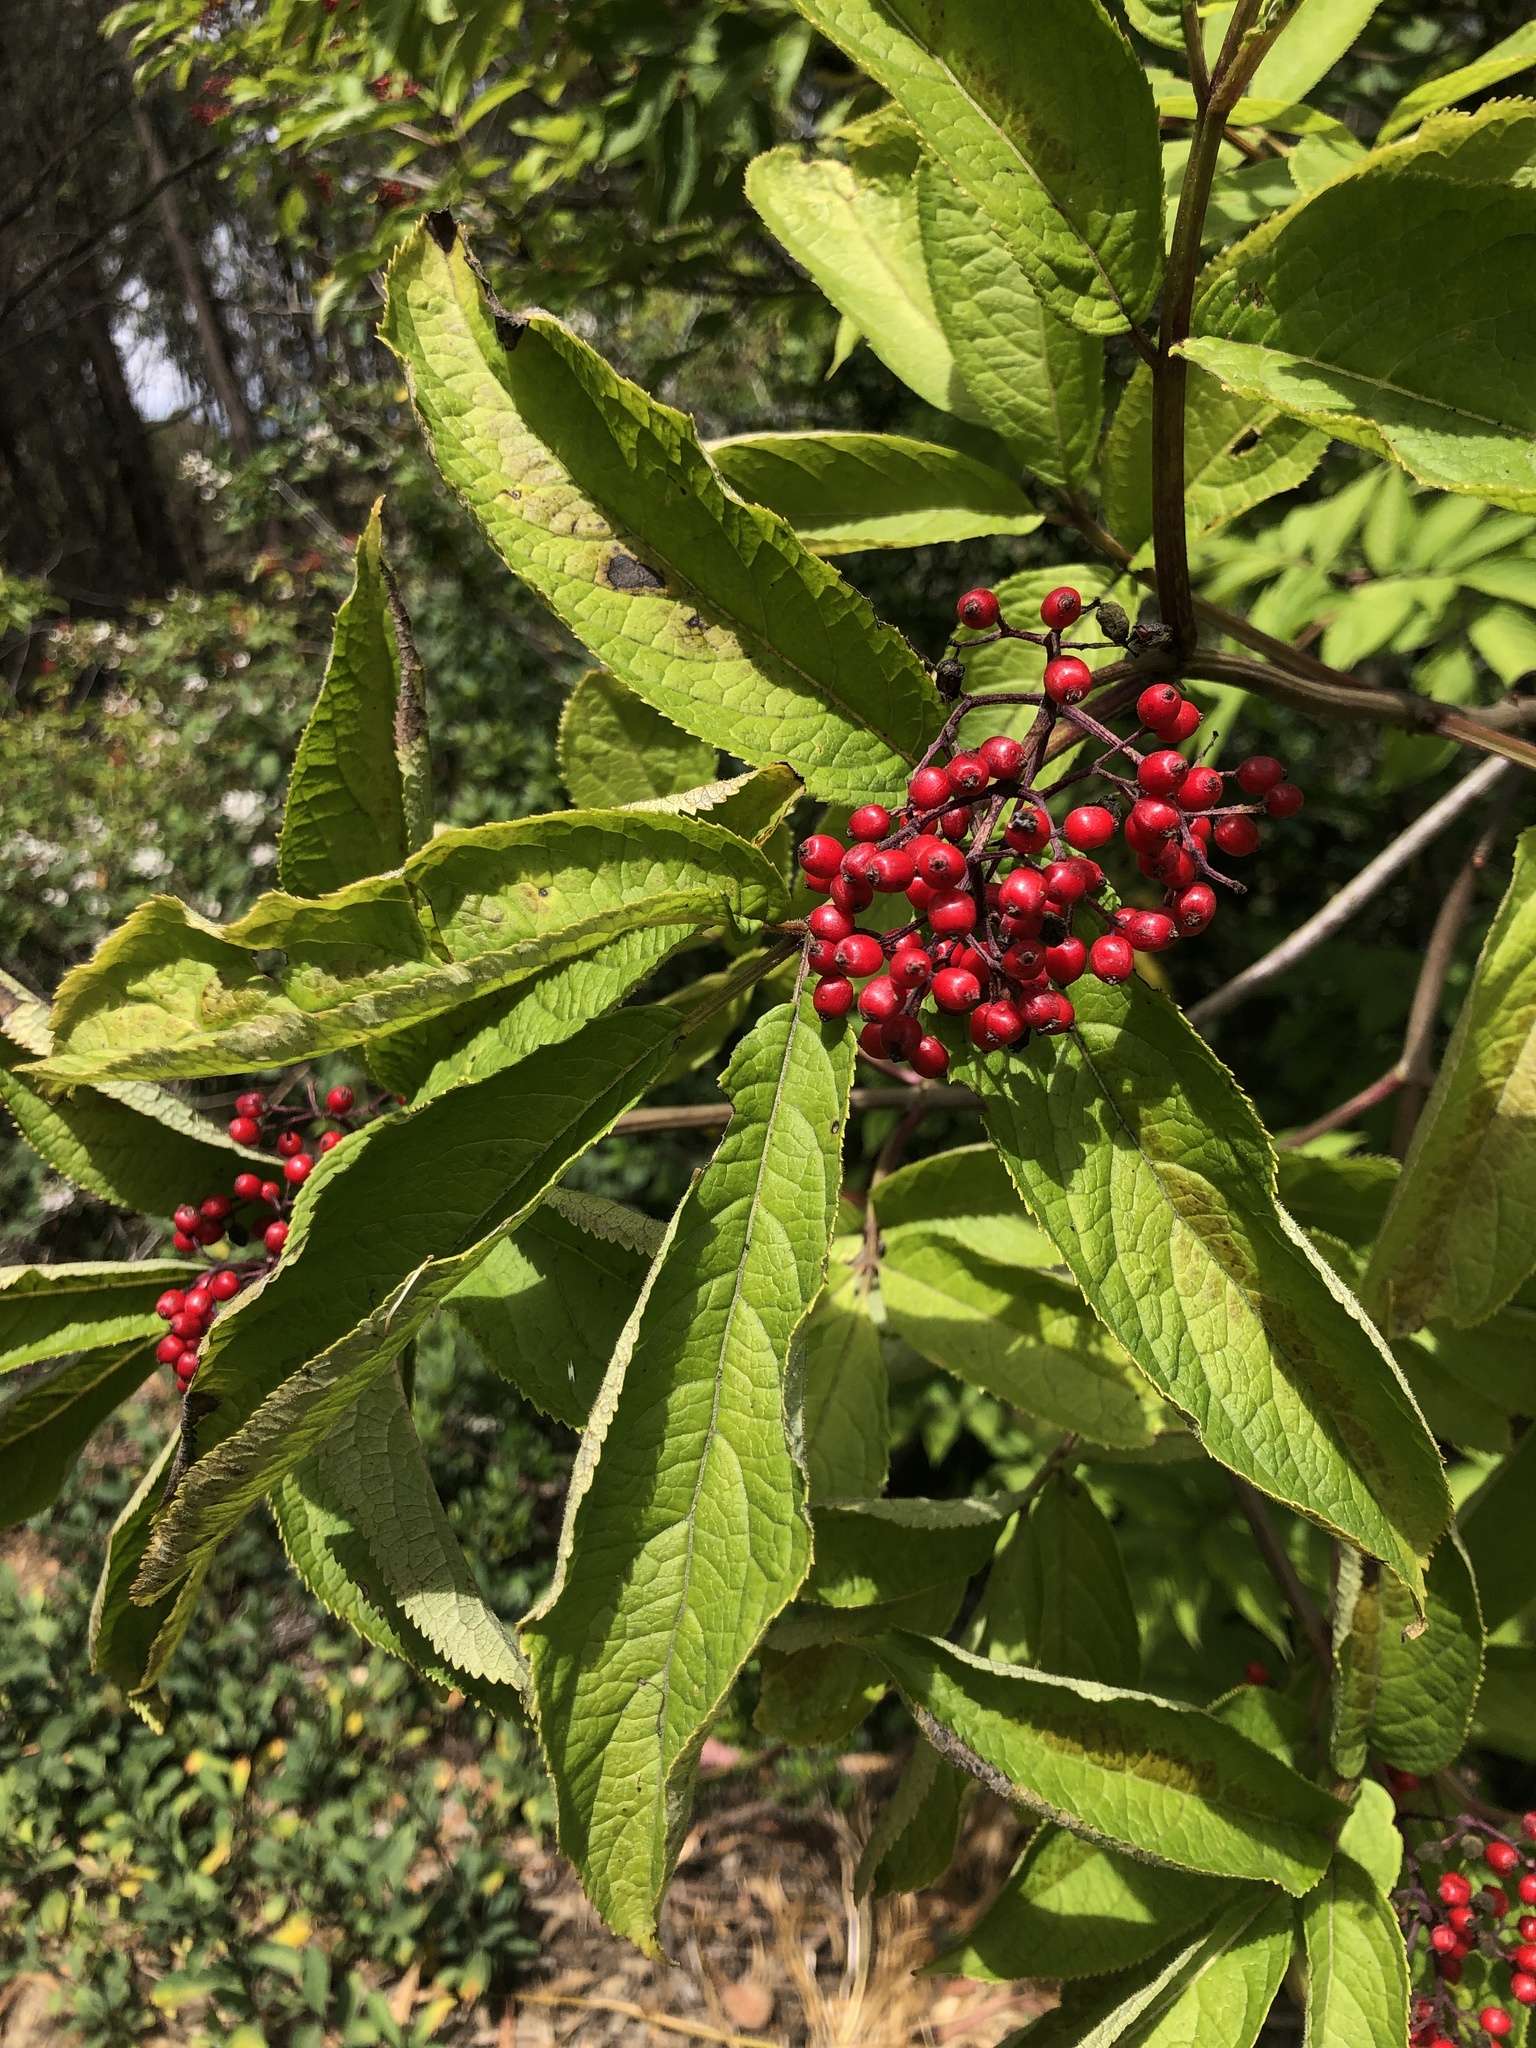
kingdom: Plantae
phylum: Tracheophyta
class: Magnoliopsida
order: Dipsacales
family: Viburnaceae
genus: Sambucus
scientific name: Sambucus racemosa
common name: Red-berried elder
